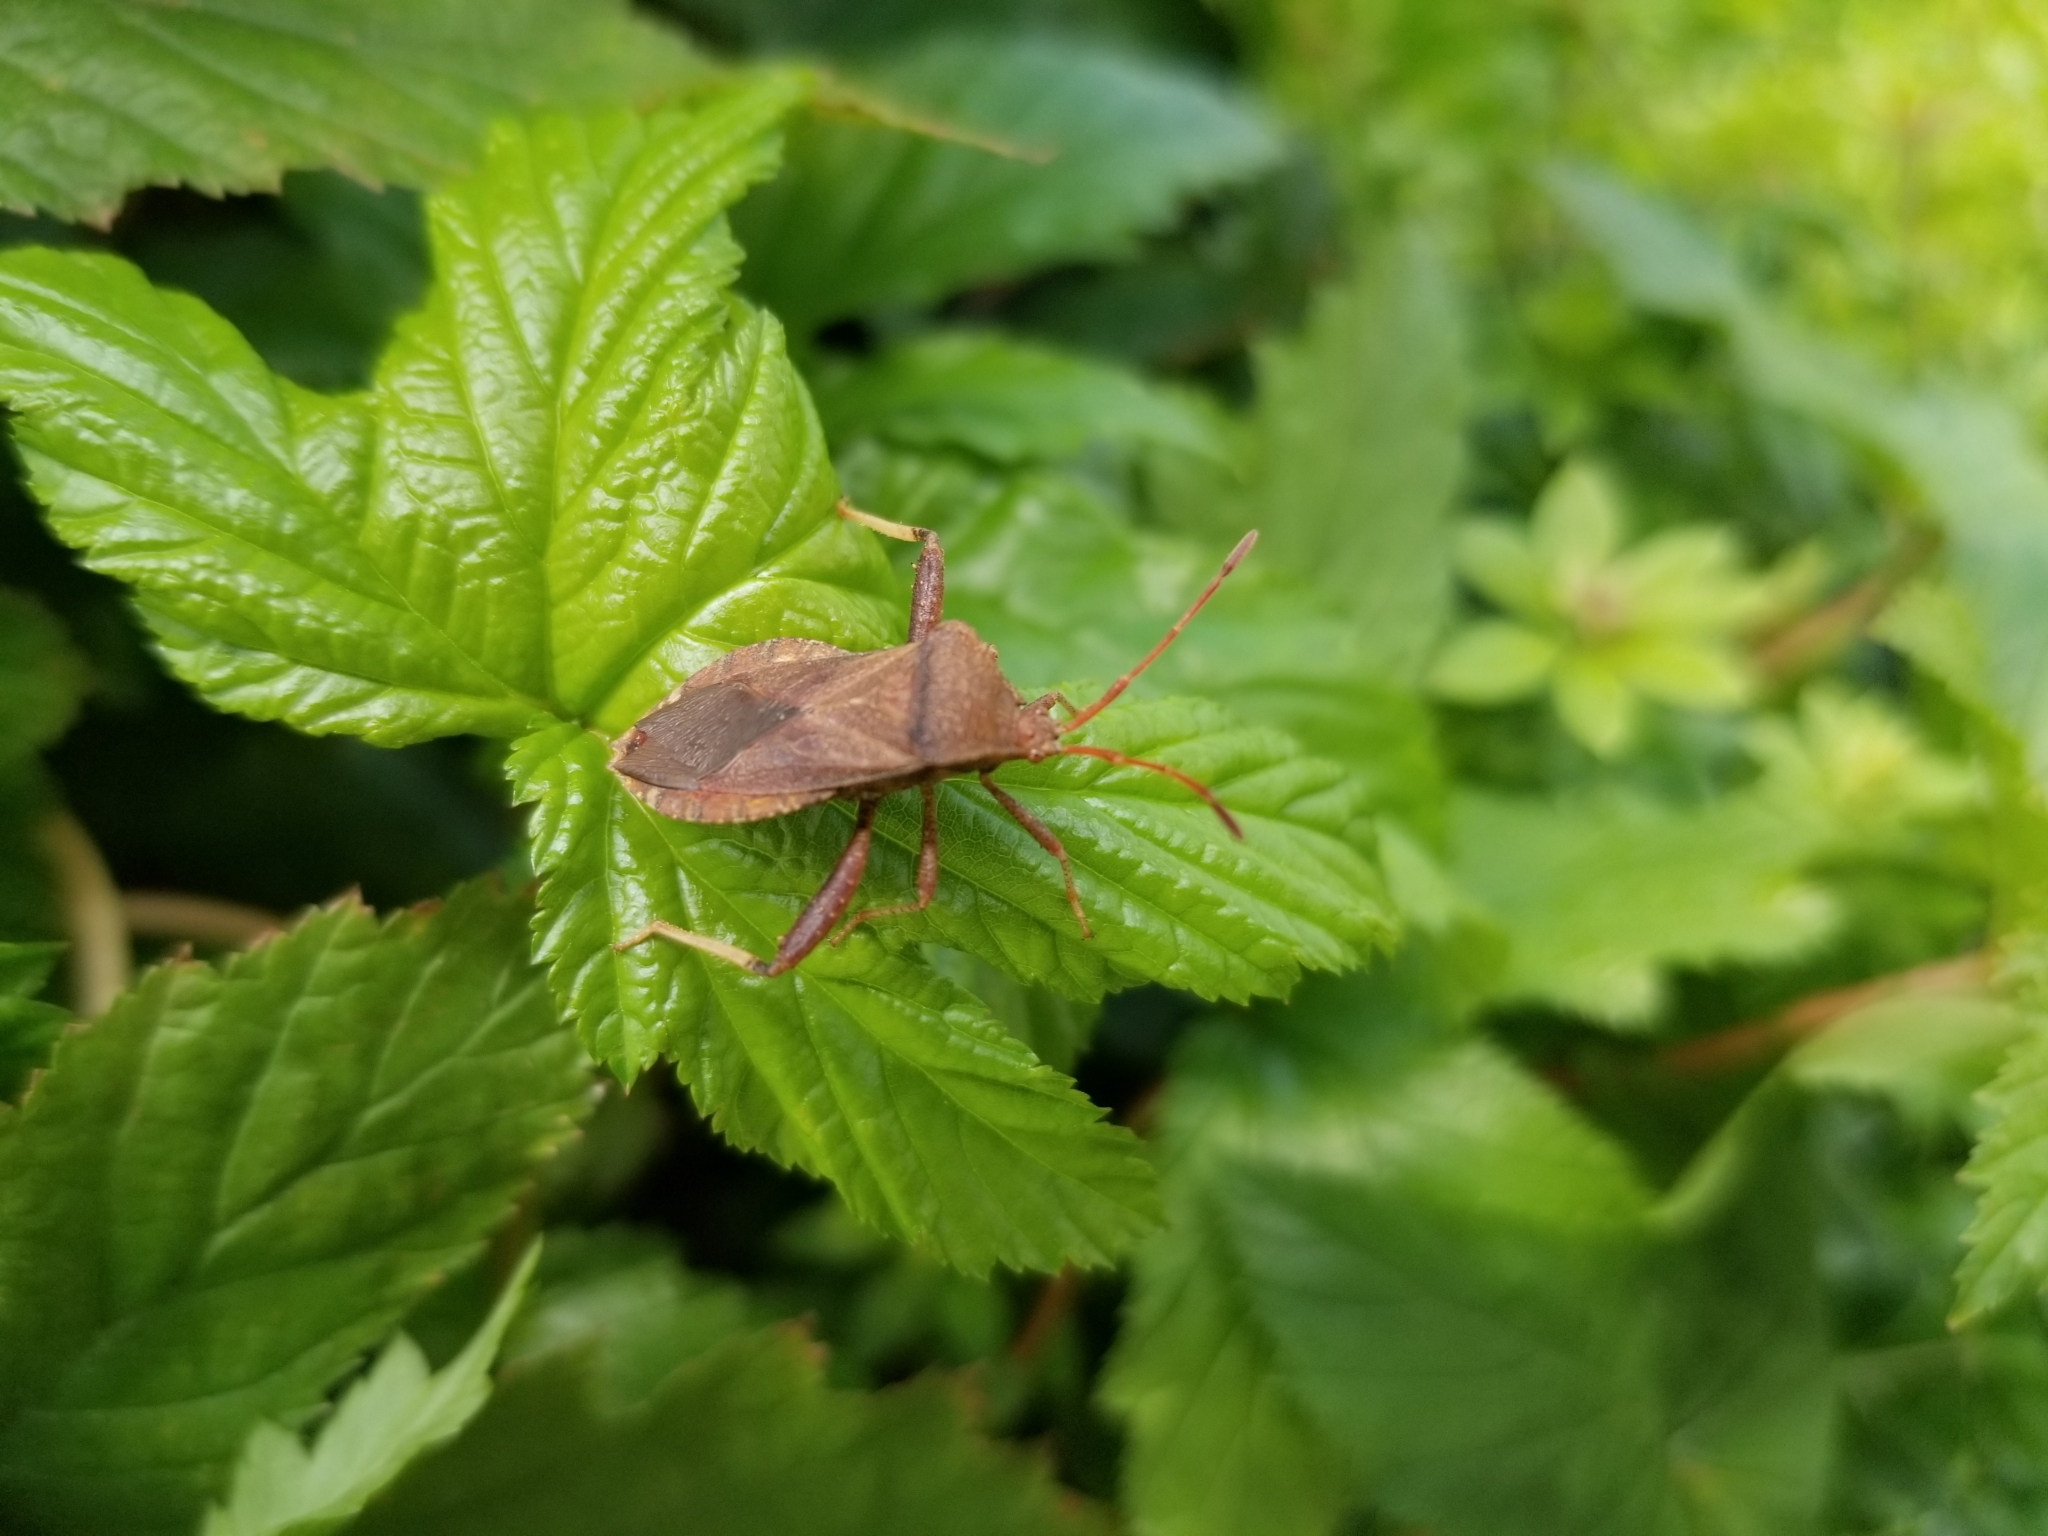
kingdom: Animalia
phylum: Arthropoda
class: Insecta
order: Hemiptera
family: Coreidae
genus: Euthochtha
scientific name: Euthochtha galeator
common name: Helmeted squash bug
